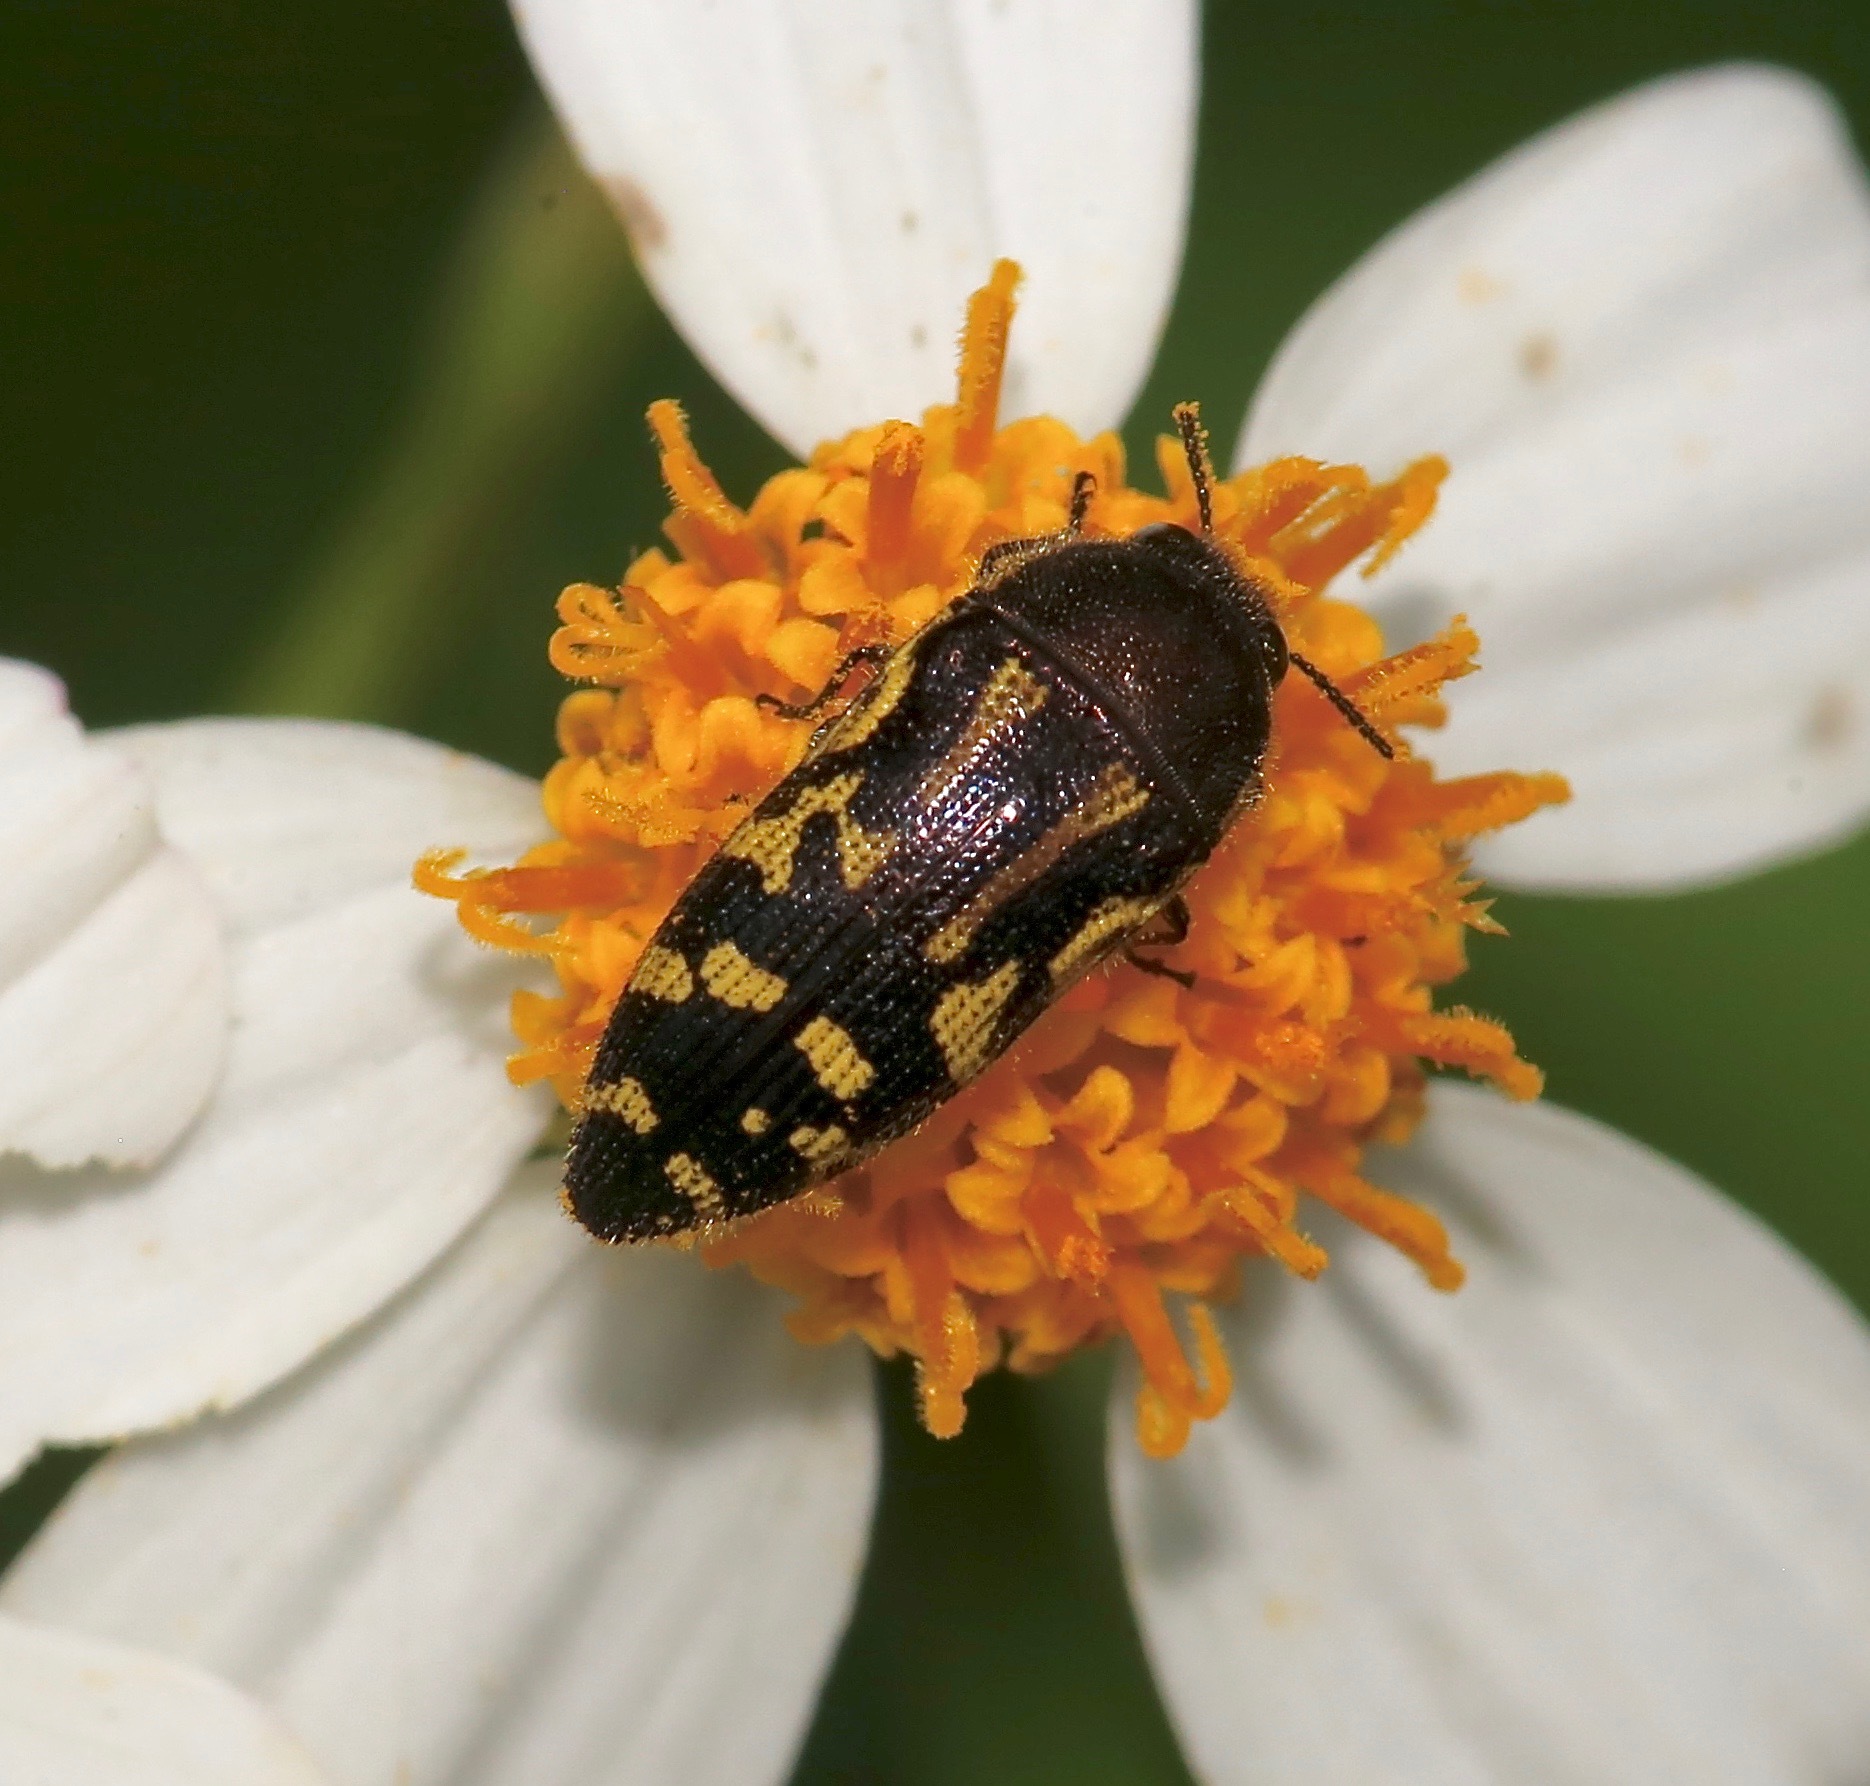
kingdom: Animalia
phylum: Arthropoda
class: Insecta
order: Coleoptera
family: Buprestidae
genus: Acmaeodera
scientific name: Acmaeodera pulchella
